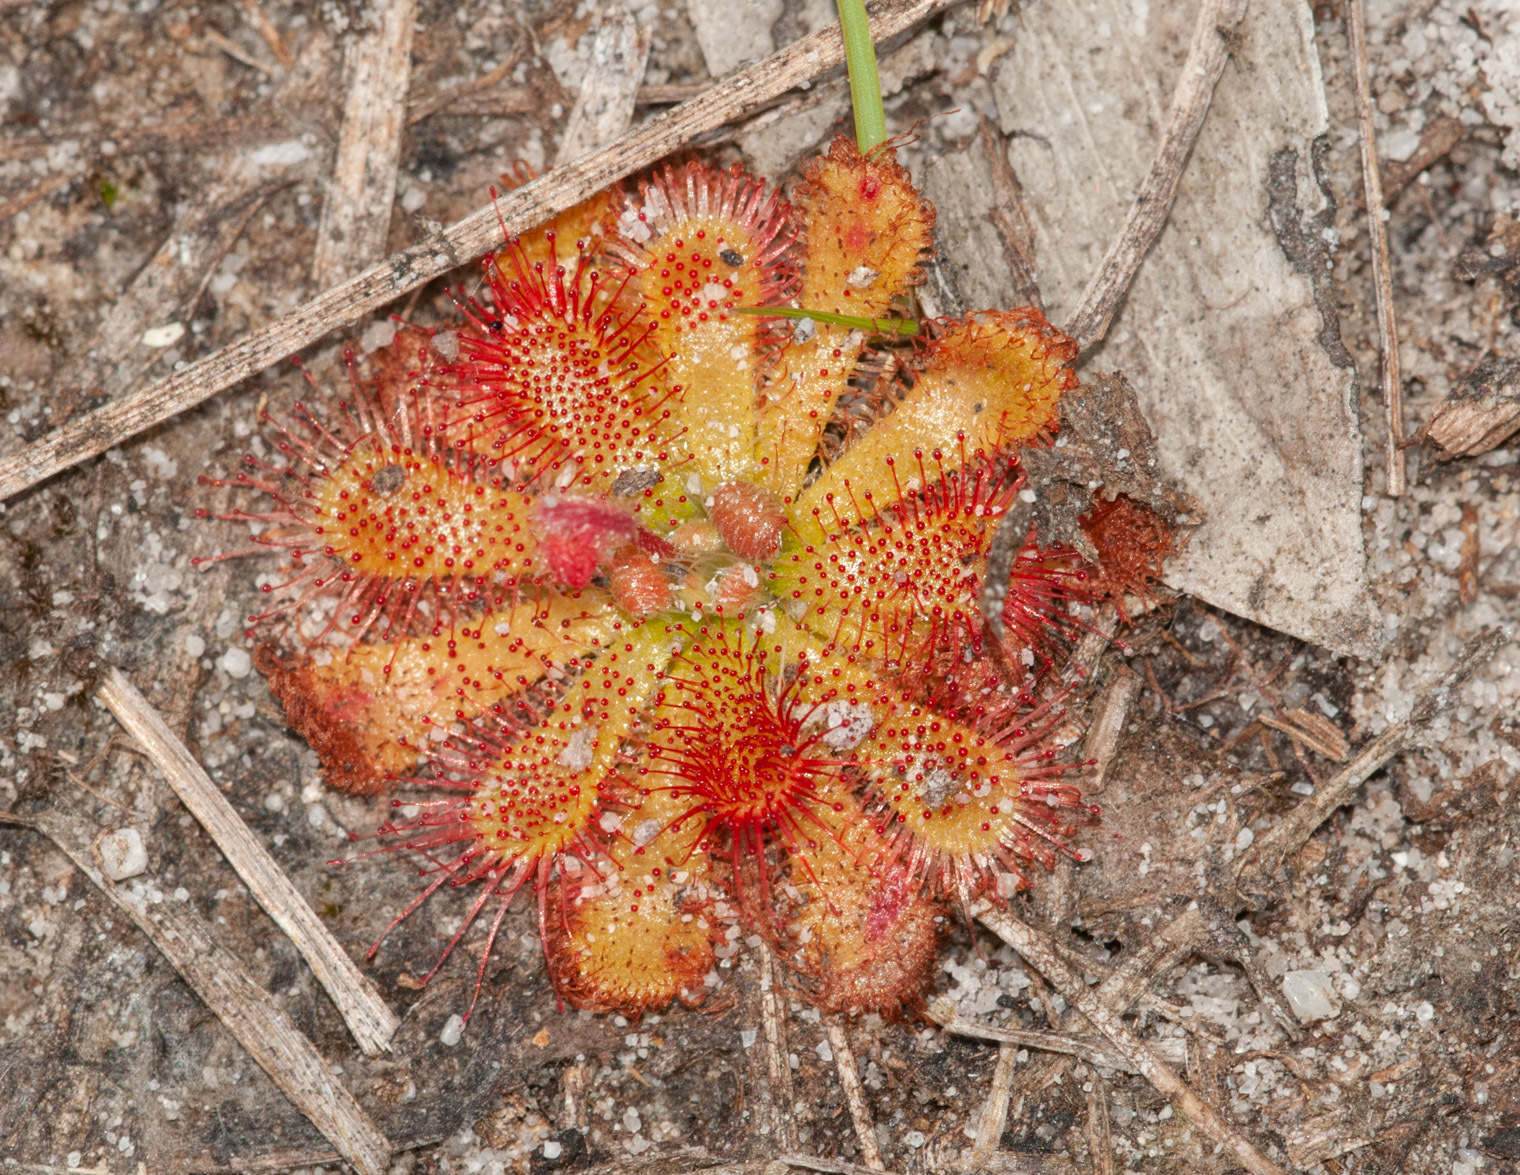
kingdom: Plantae
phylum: Tracheophyta
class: Magnoliopsida
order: Caryophyllales
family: Droseraceae
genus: Drosera
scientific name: Drosera spatulata
